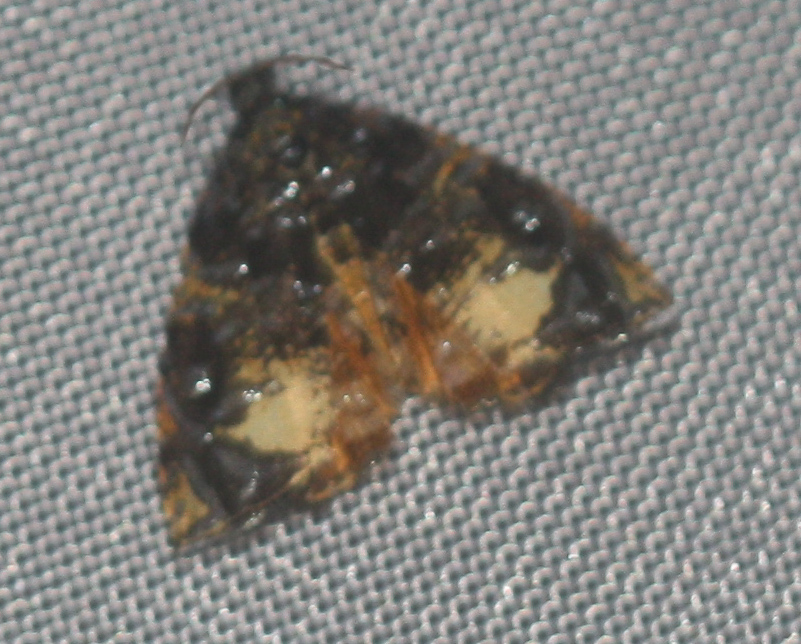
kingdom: Animalia
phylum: Arthropoda
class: Insecta
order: Lepidoptera
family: Tortricidae
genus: Mictopsichia
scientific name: Mictopsichia hubneriana
